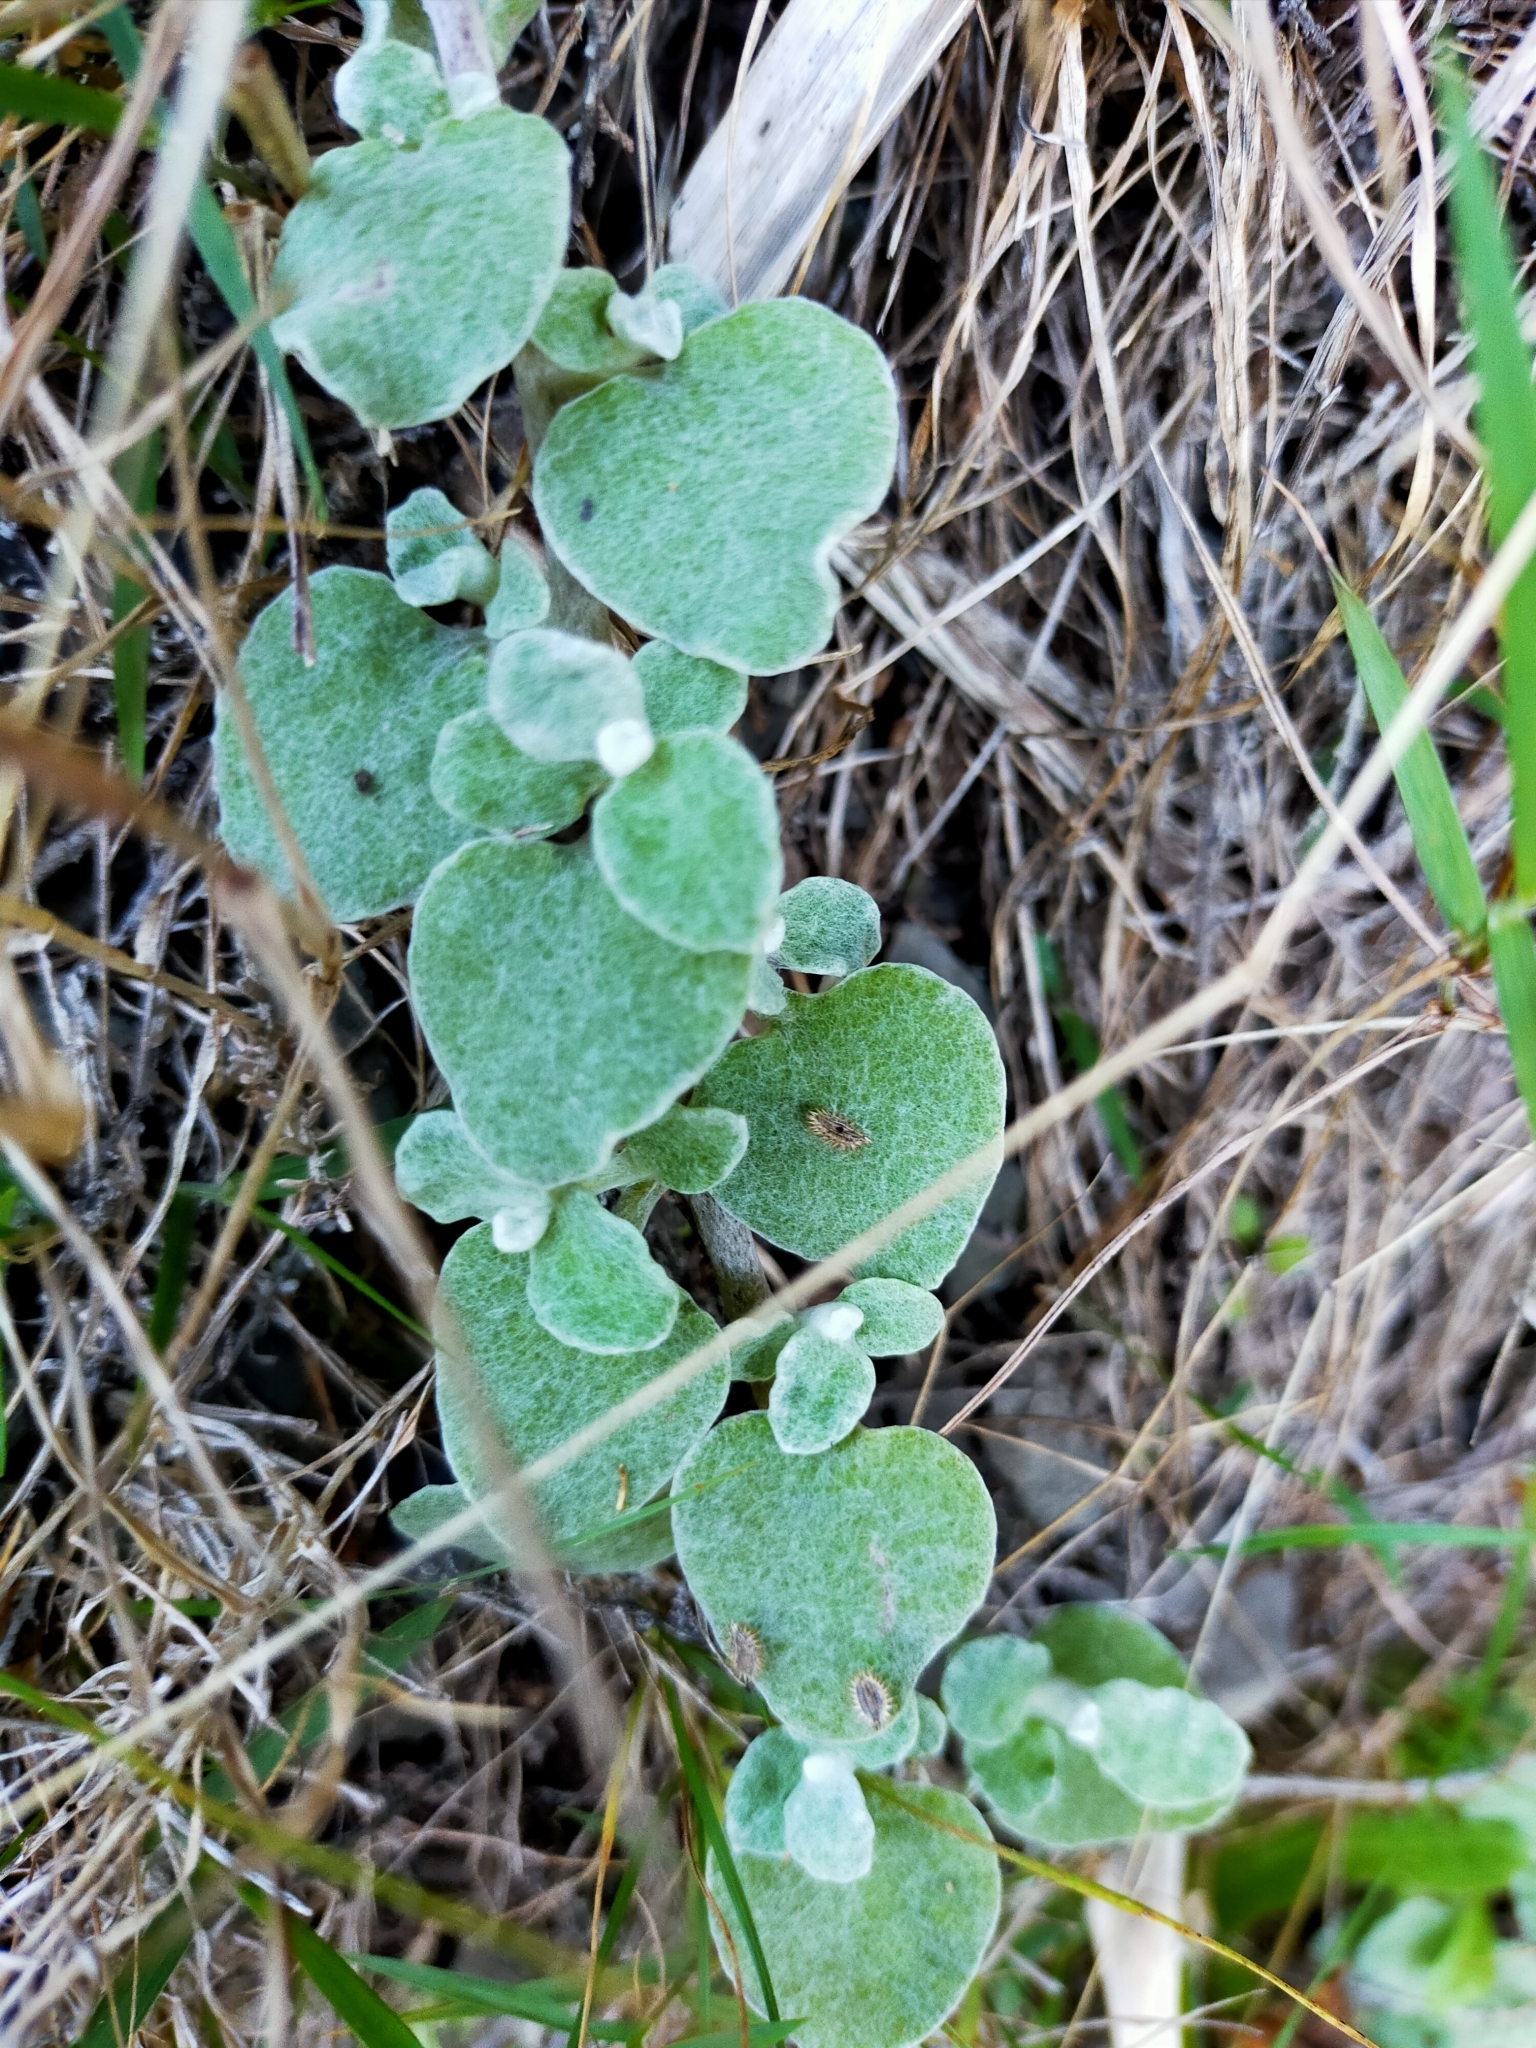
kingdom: Plantae
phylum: Tracheophyta
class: Magnoliopsida
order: Asterales
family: Asteraceae
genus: Helichrysum
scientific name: Helichrysum petiolare
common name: Licorice-plant
